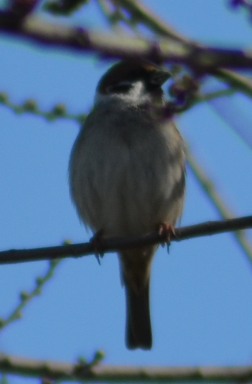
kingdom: Animalia
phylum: Chordata
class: Aves
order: Passeriformes
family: Passeridae
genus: Passer
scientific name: Passer montanus
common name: Eurasian tree sparrow
